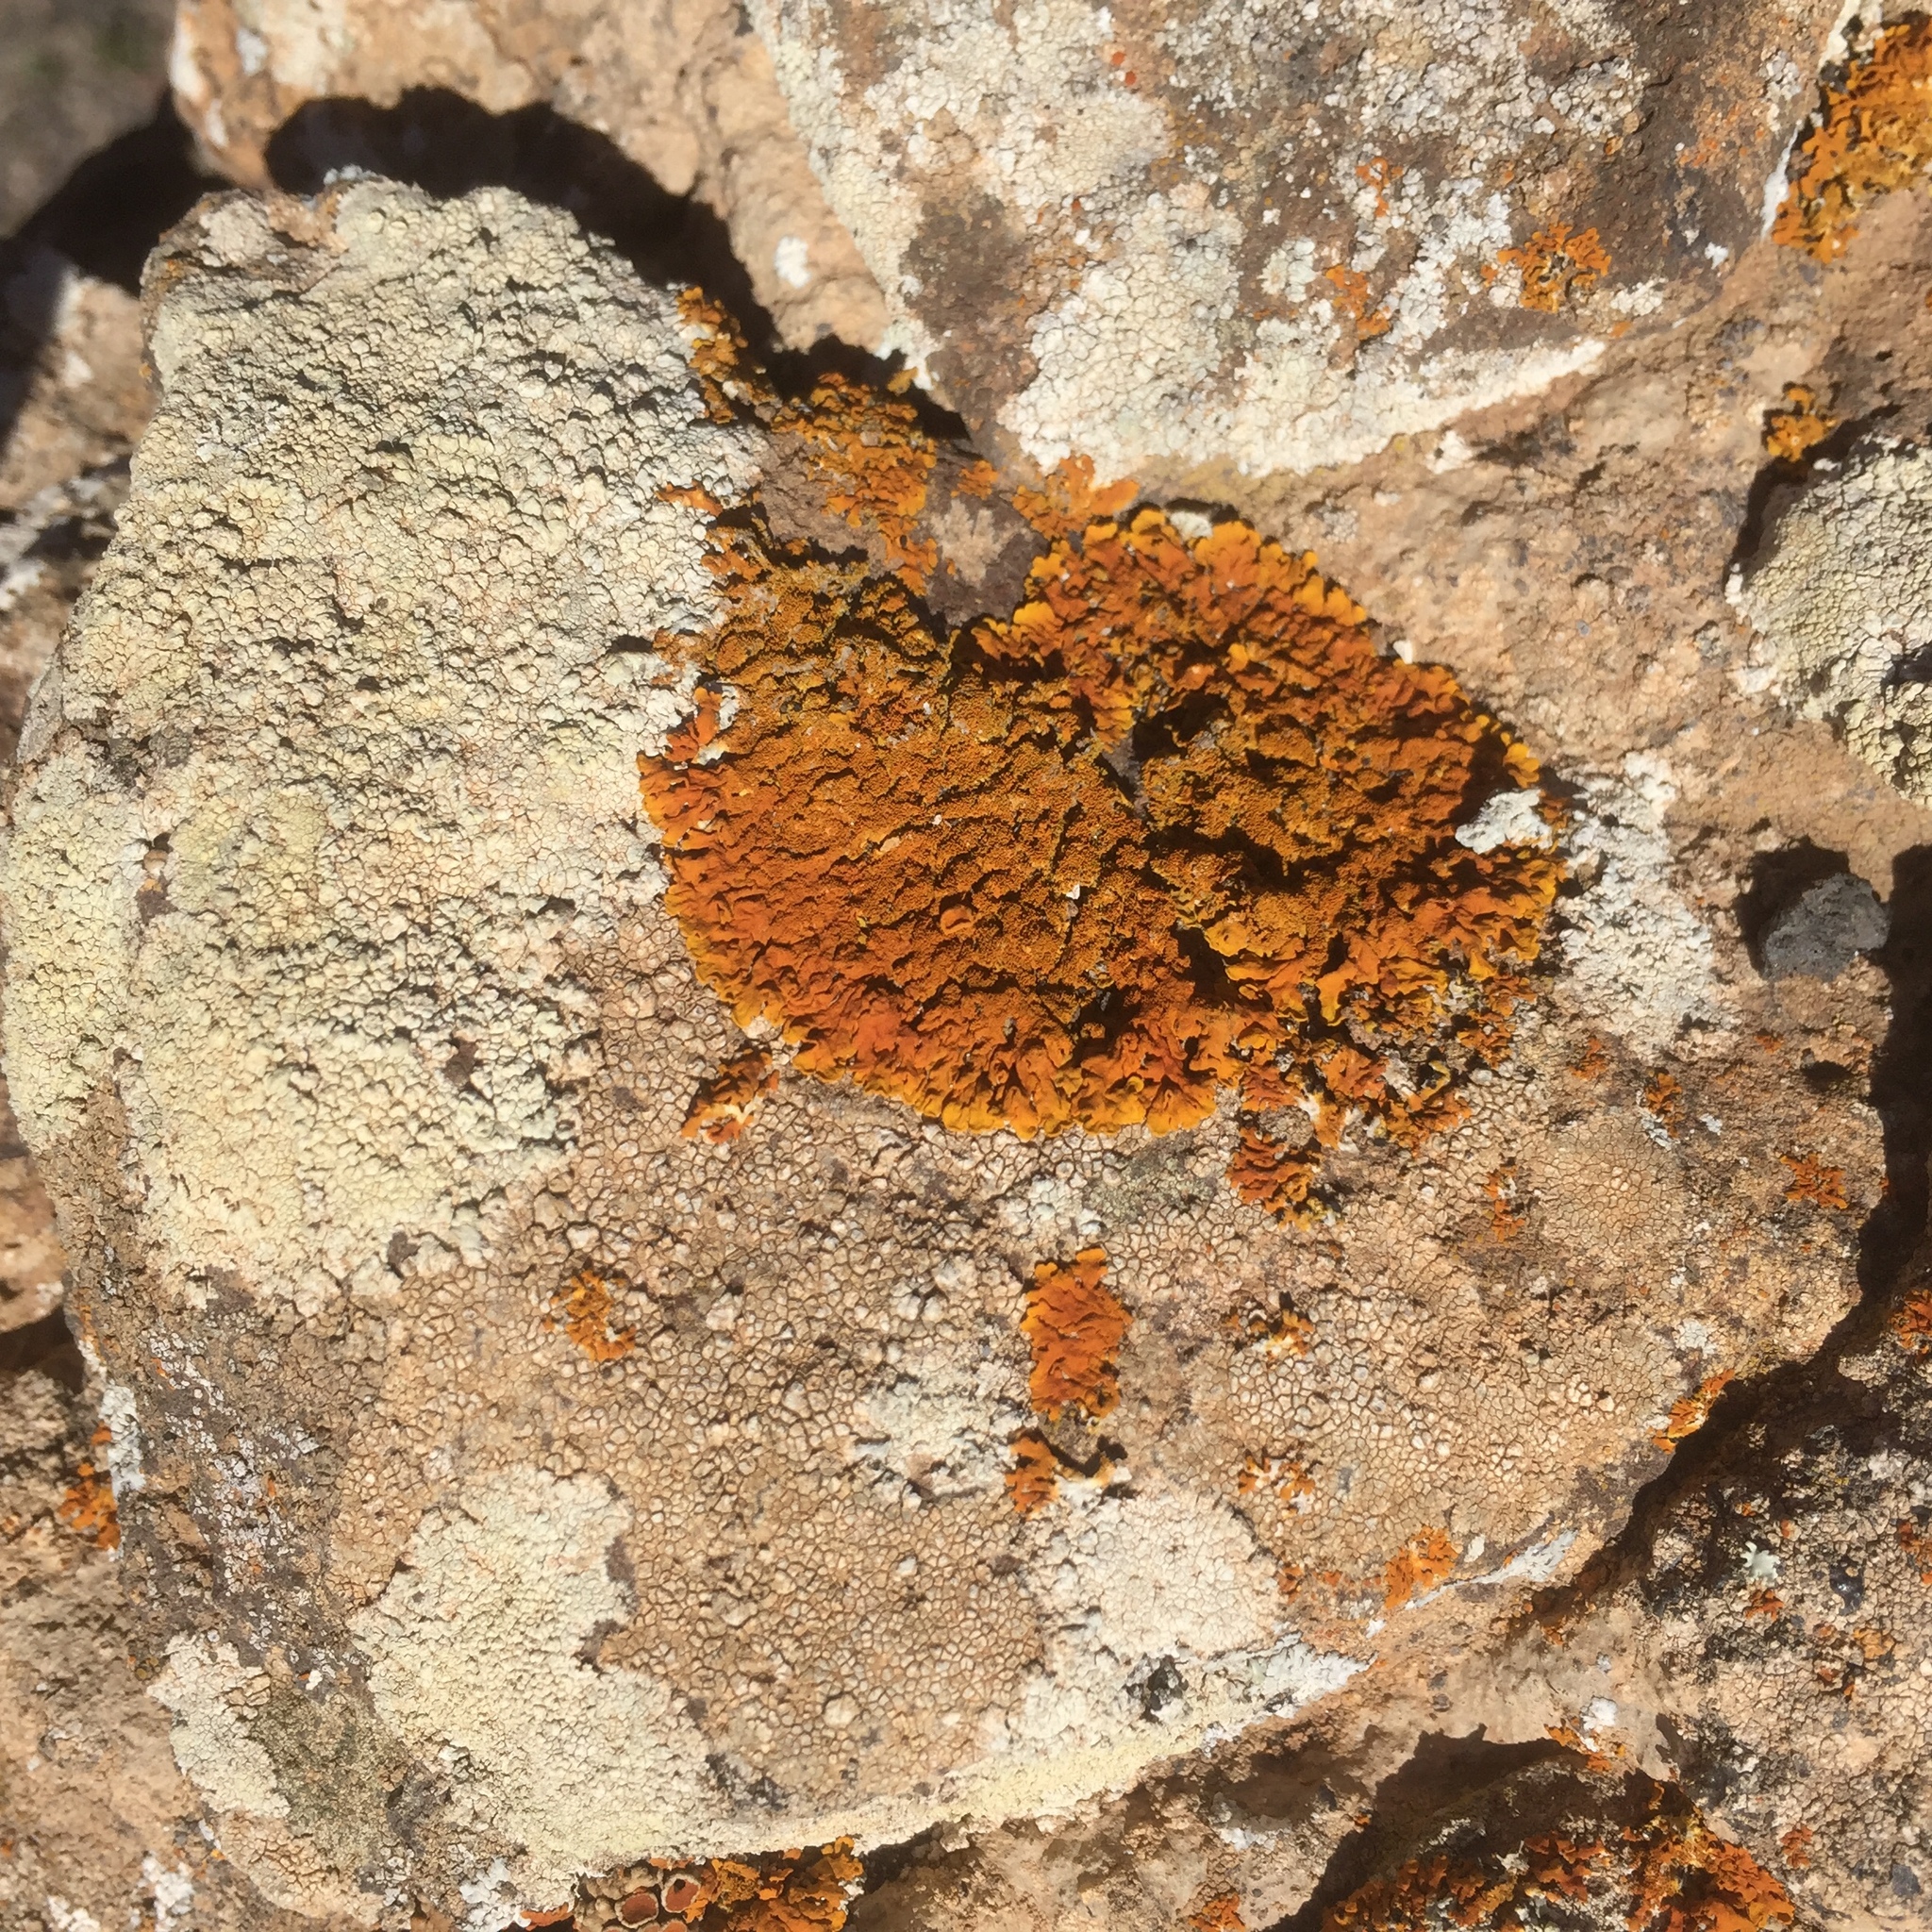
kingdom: Fungi
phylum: Ascomycota
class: Lecanoromycetes
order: Teloschistales
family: Teloschistaceae
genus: Xanthoria
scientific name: Xanthoria calcicola
